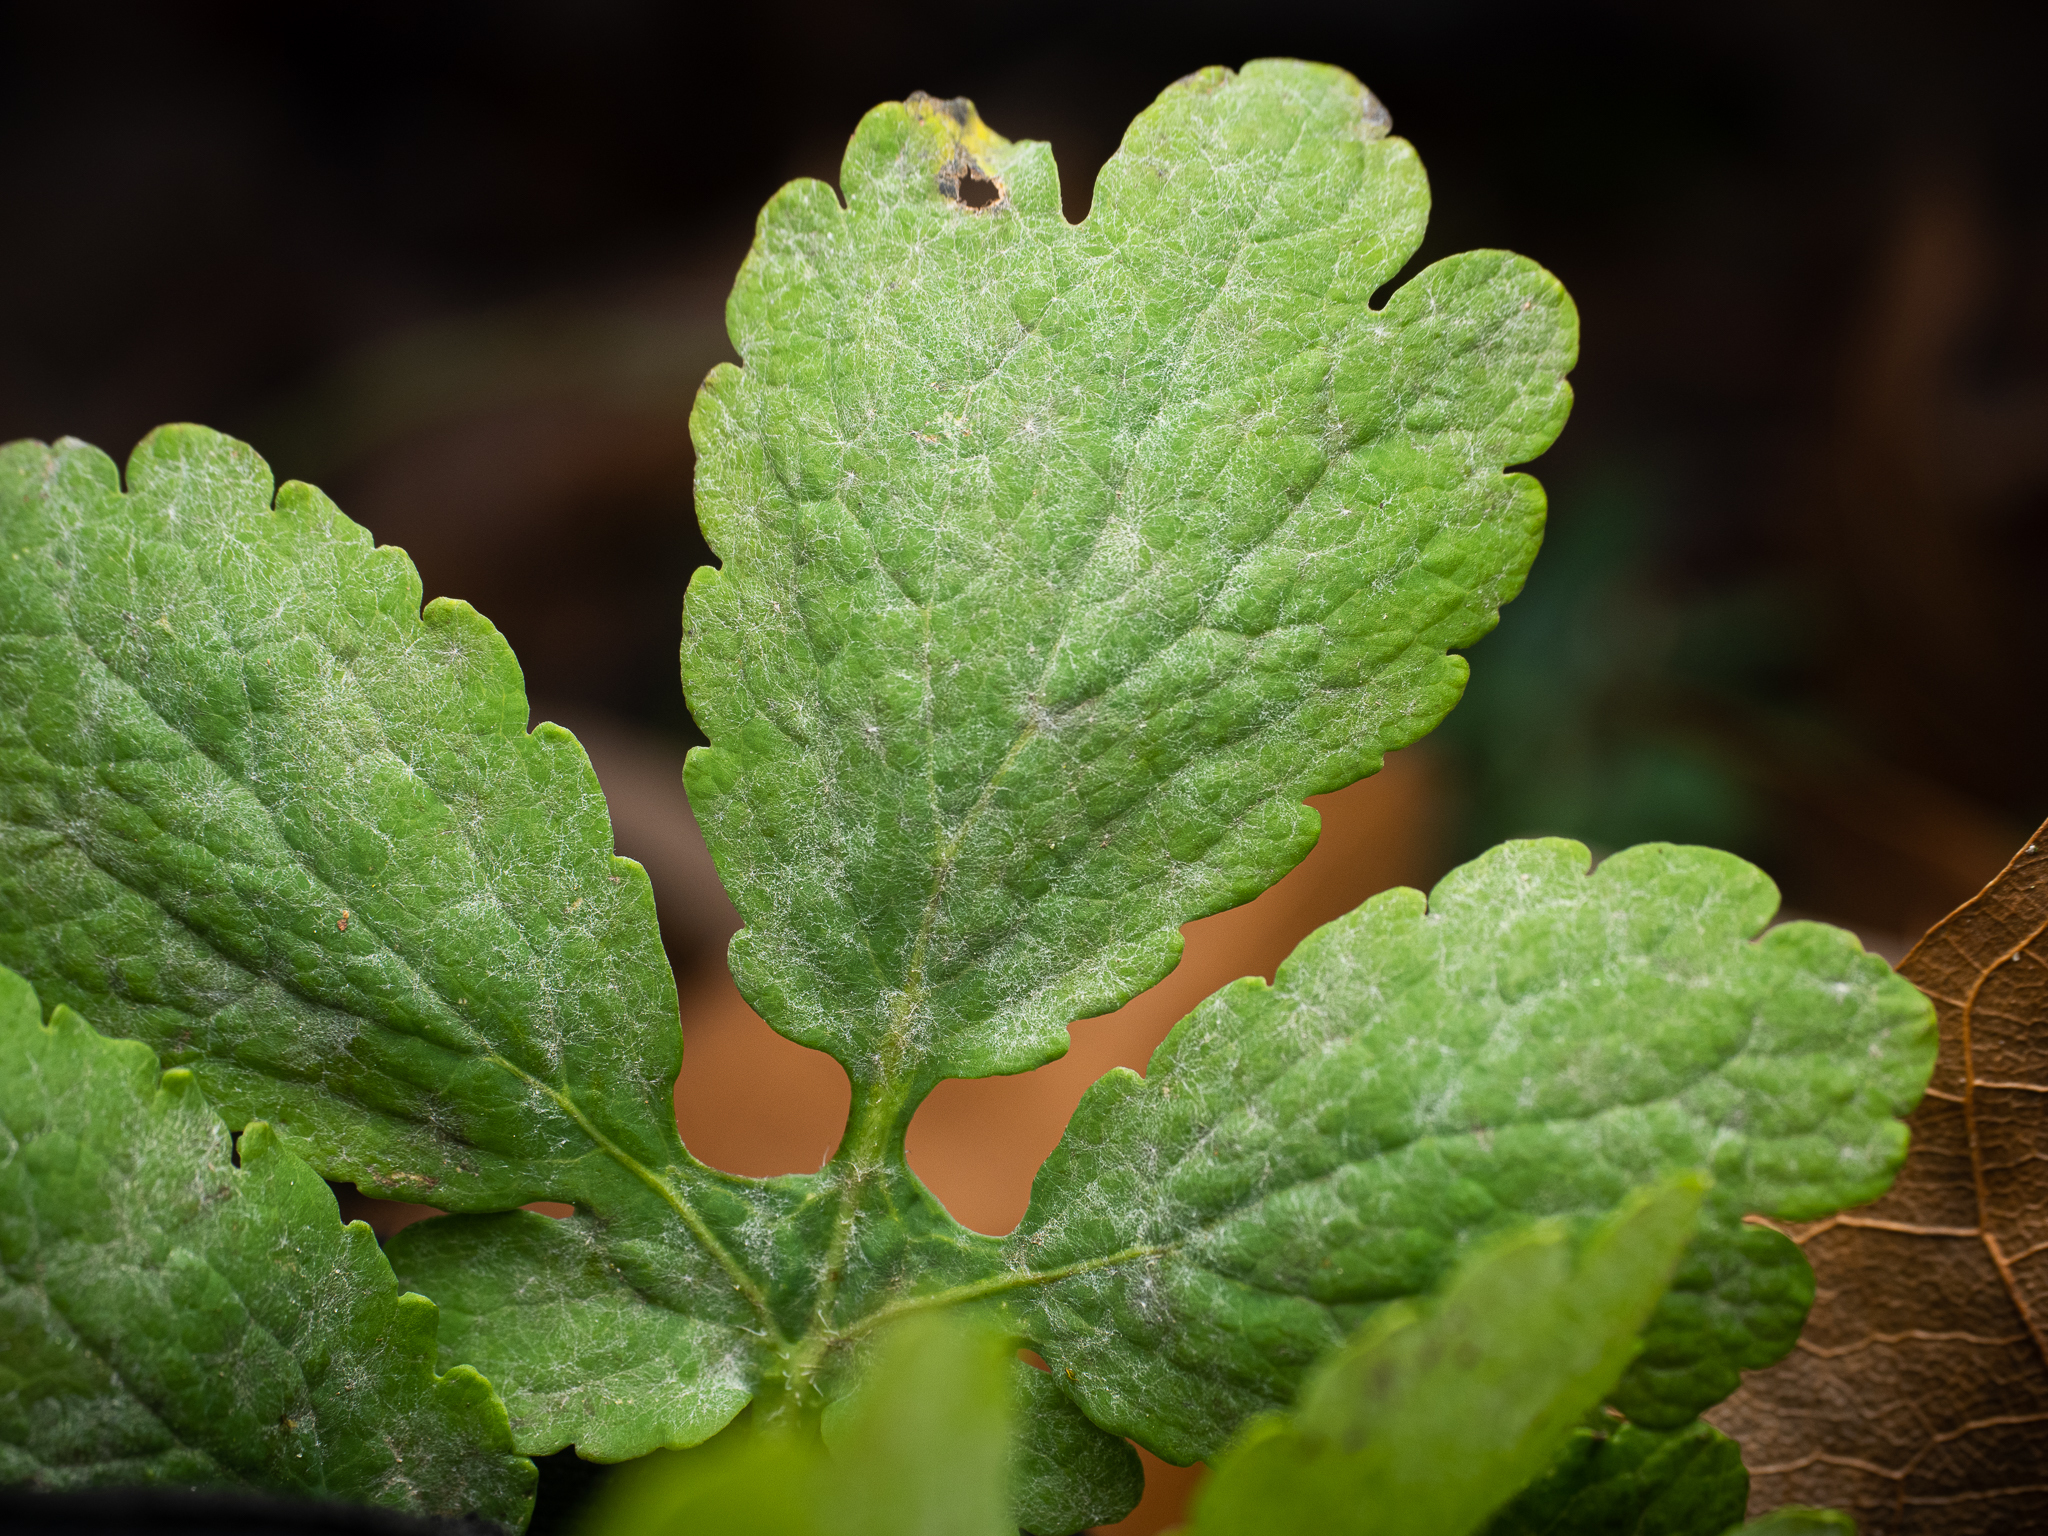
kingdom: Fungi
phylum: Ascomycota
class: Leotiomycetes
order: Helotiales
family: Erysiphaceae
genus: Erysiphe
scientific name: Erysiphe macleayae
